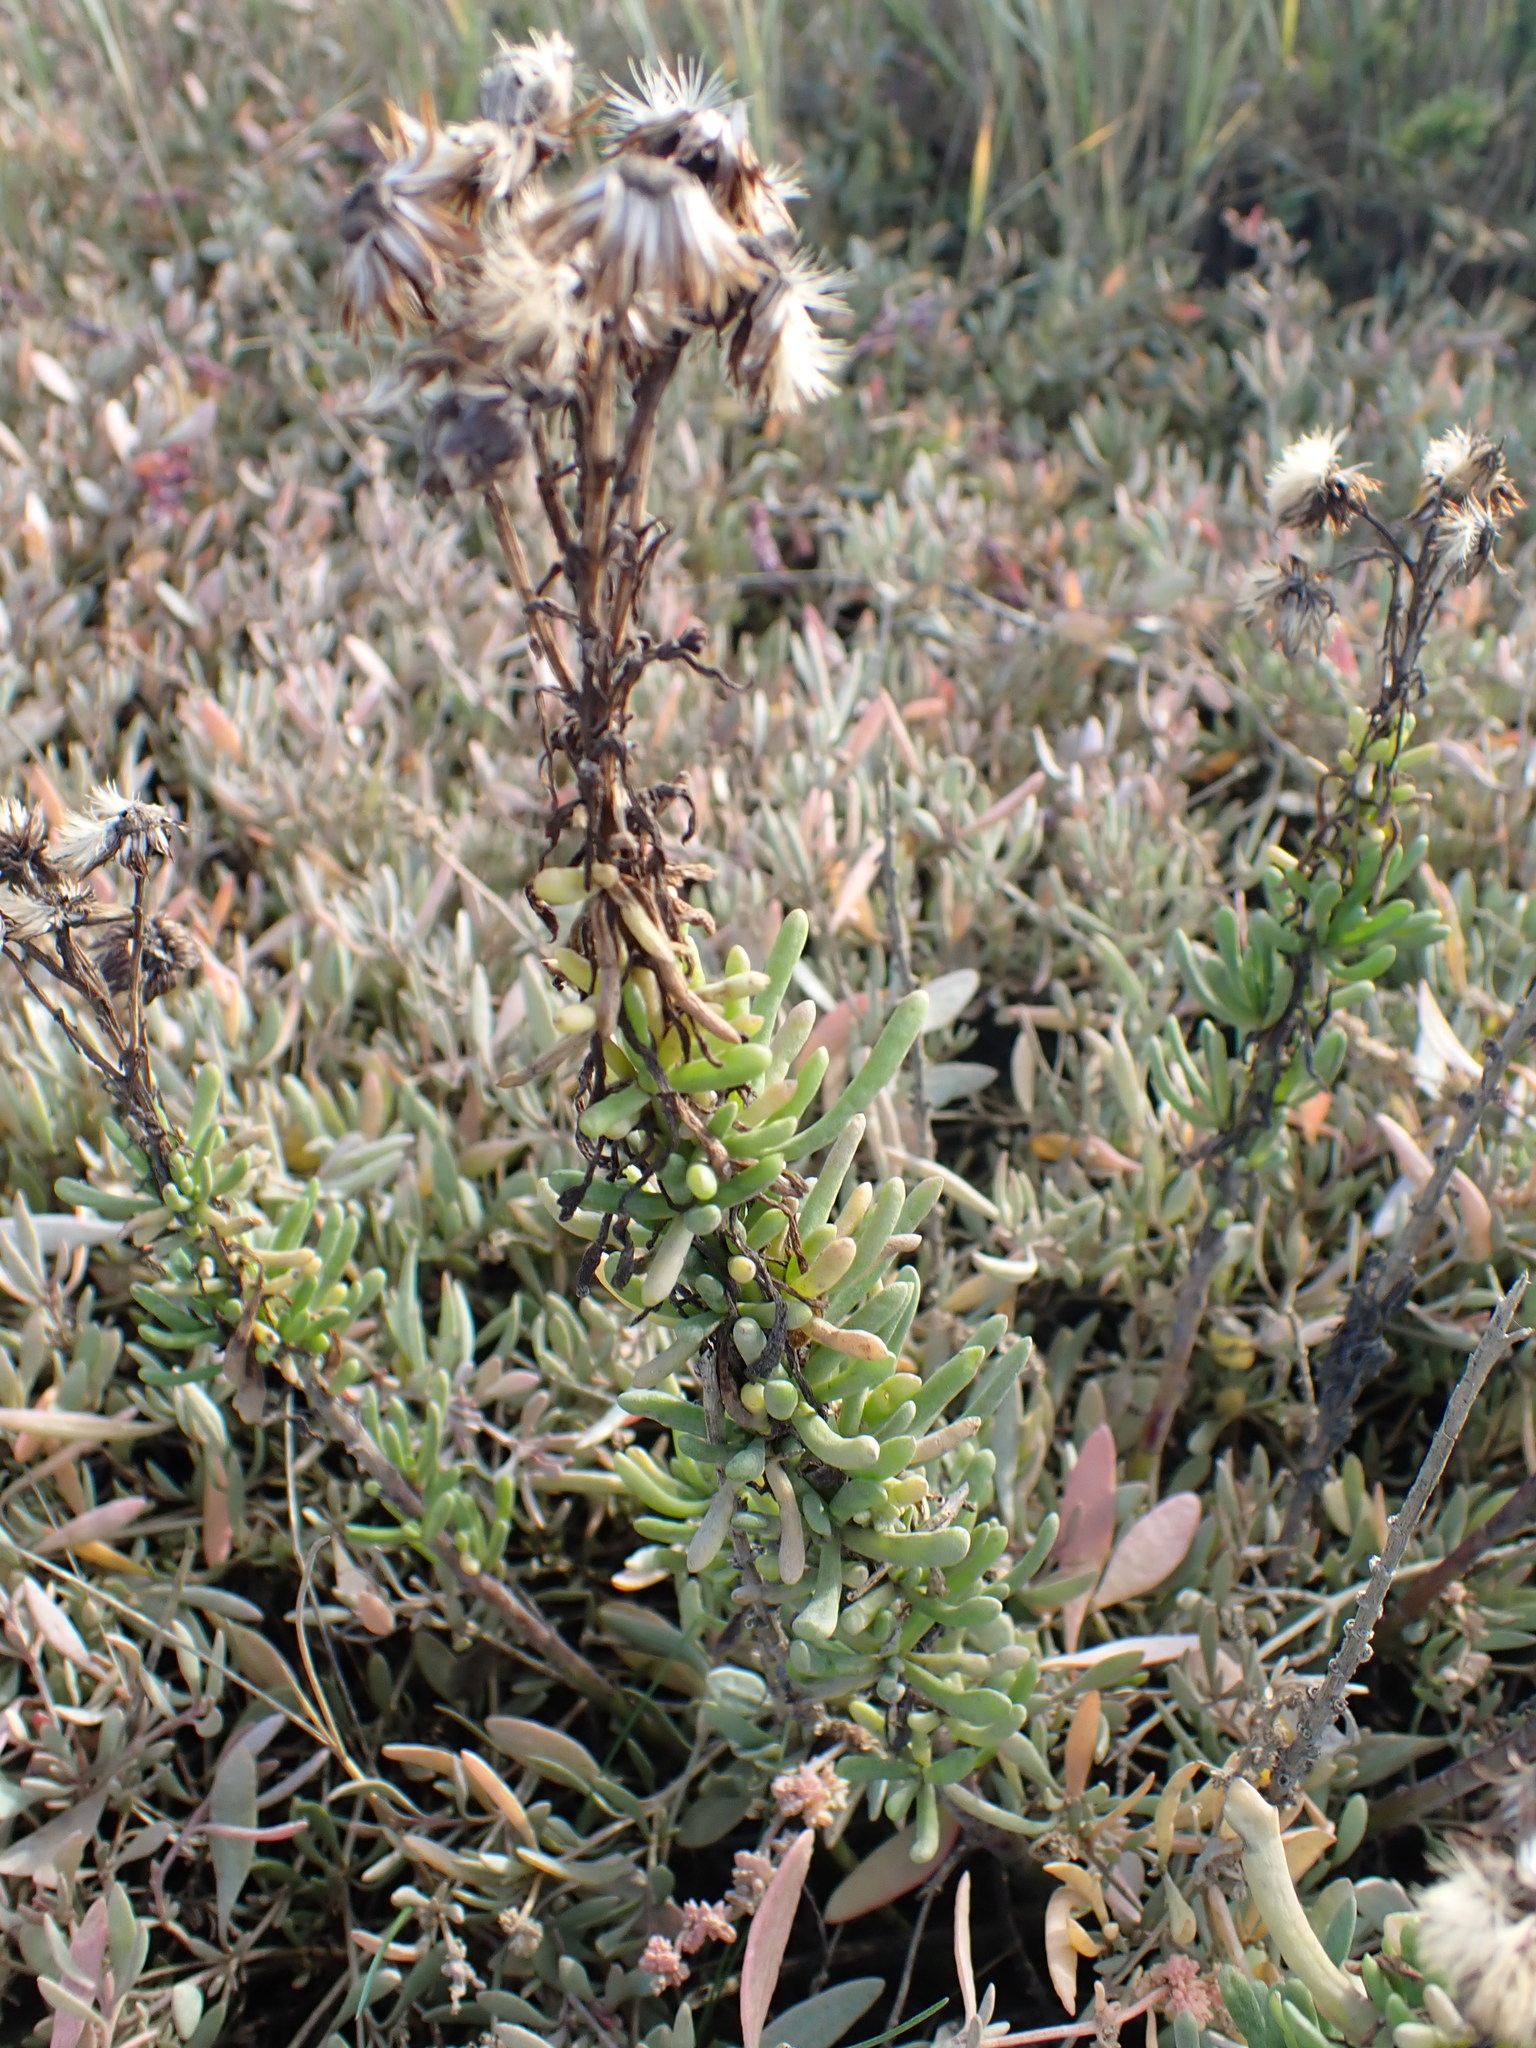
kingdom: Plantae
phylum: Tracheophyta
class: Magnoliopsida
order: Asterales
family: Asteraceae
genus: Limbarda
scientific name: Limbarda crithmoides
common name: Golden samphire
